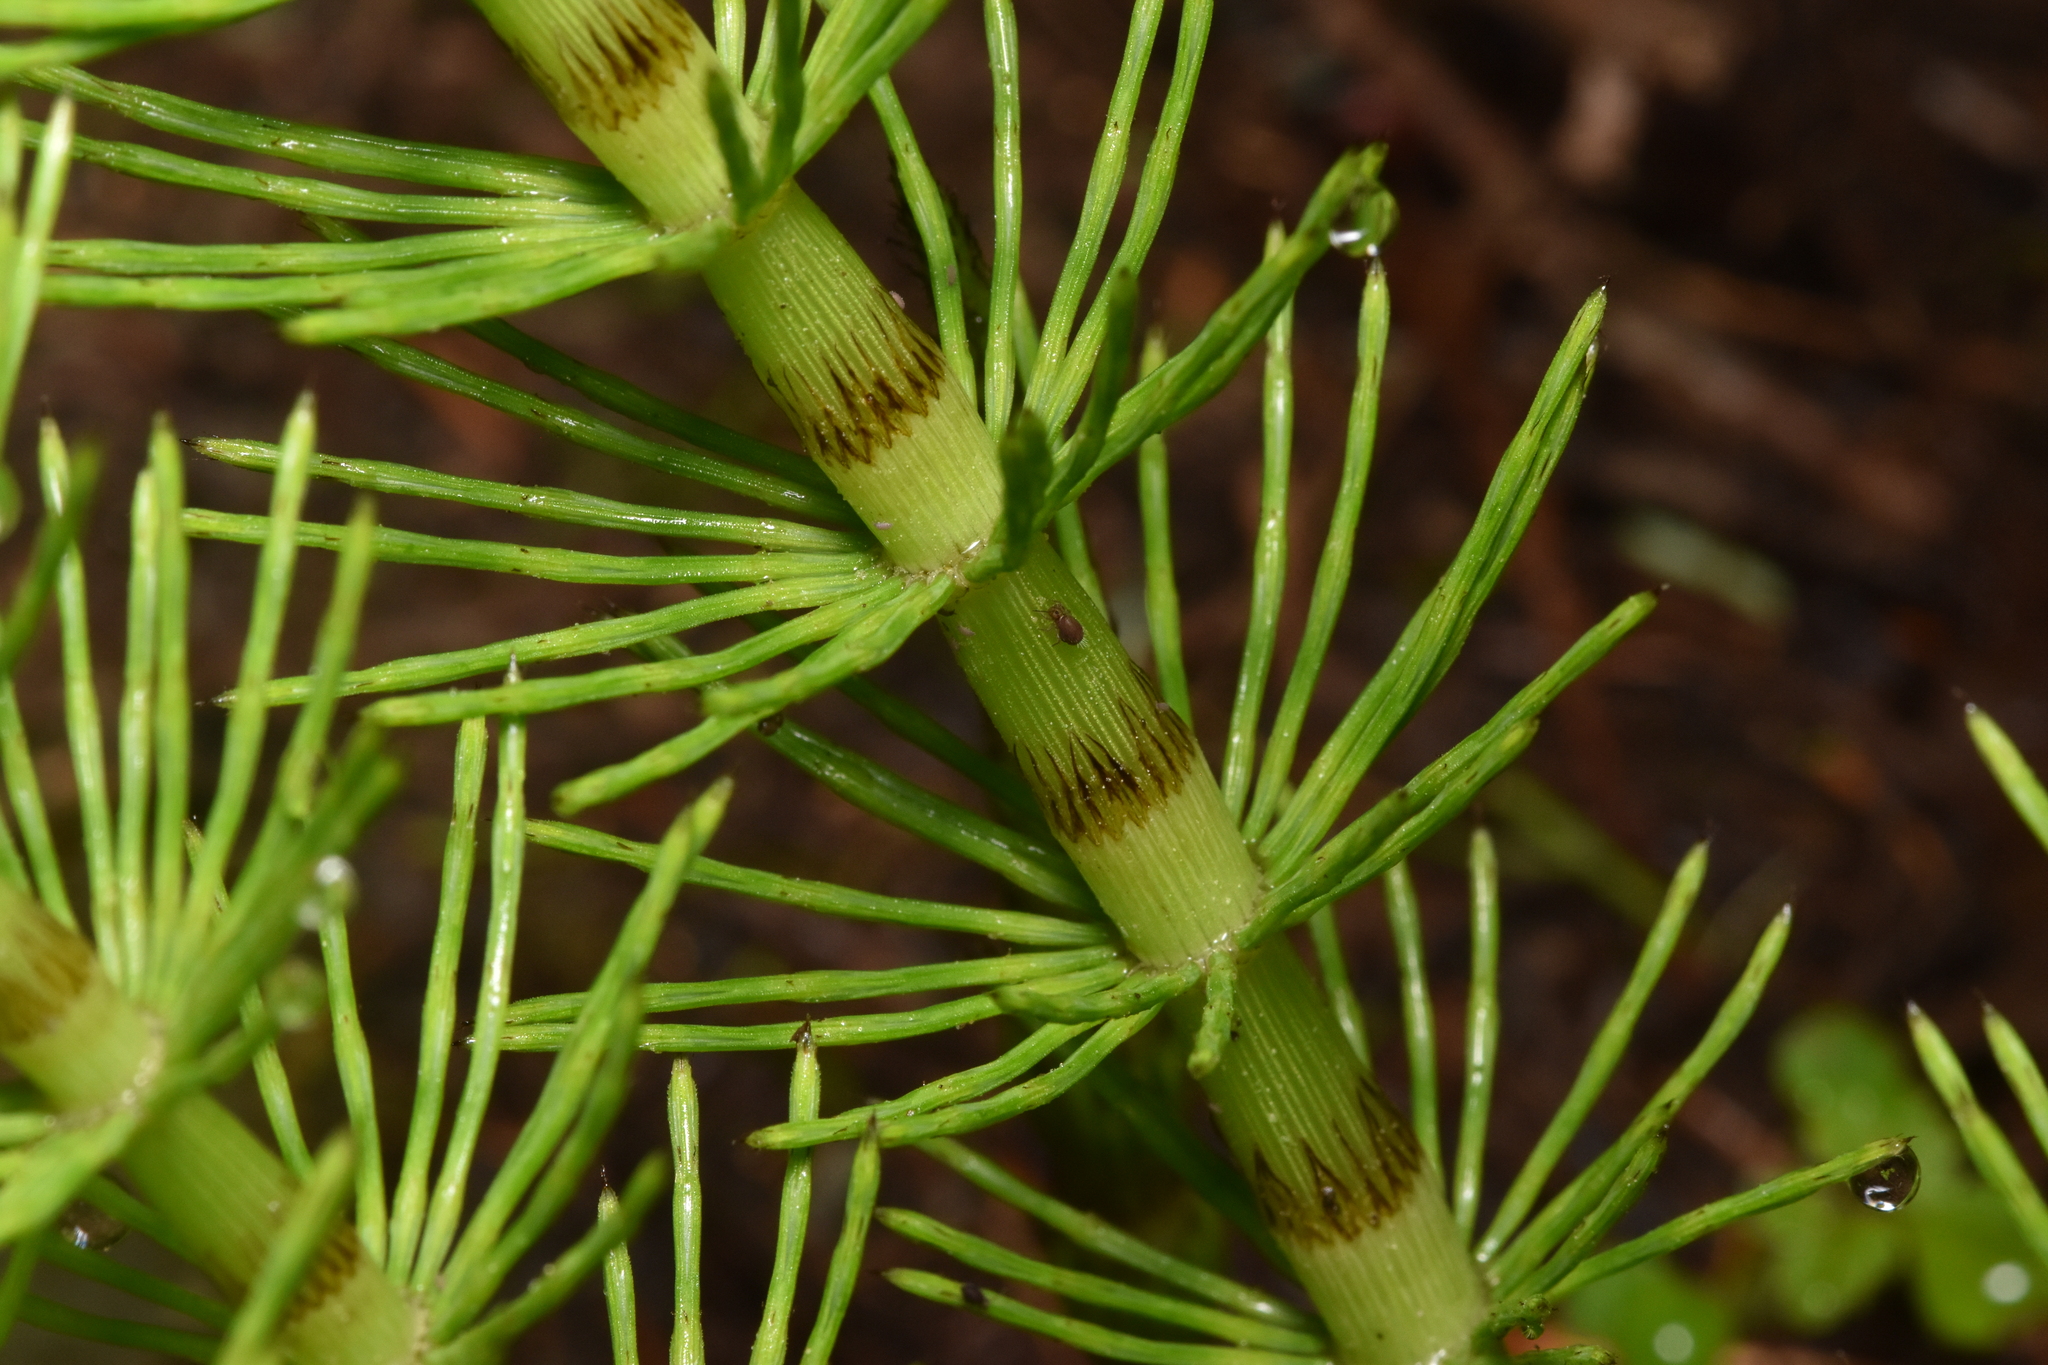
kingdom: Plantae
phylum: Tracheophyta
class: Polypodiopsida
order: Equisetales
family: Equisetaceae
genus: Equisetum
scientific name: Equisetum telmateia
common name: Great horsetail
